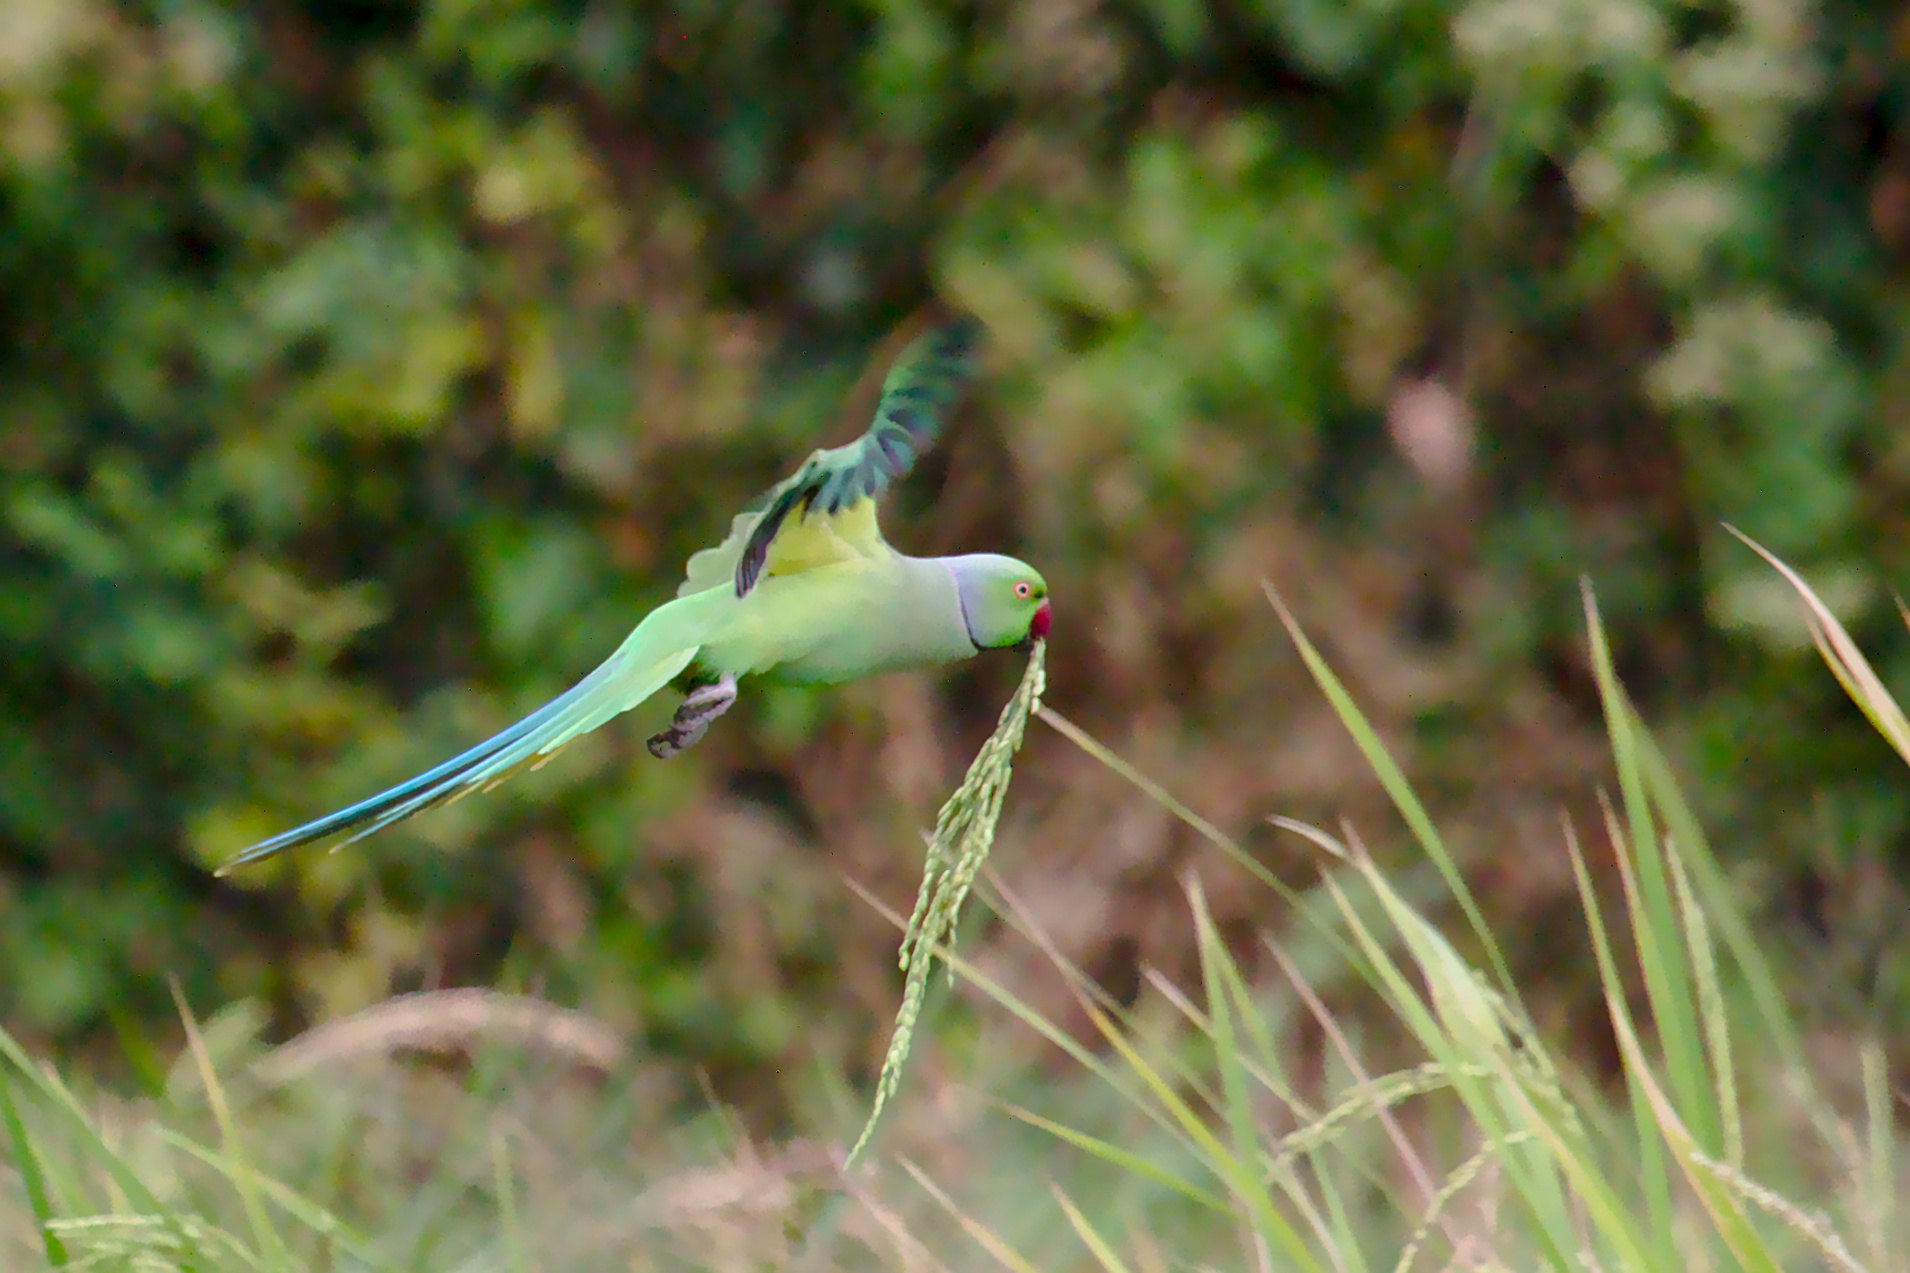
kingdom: Animalia
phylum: Chordata
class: Aves
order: Psittaciformes
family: Psittacidae
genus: Psittacula
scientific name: Psittacula krameri
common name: Rose-ringed parakeet
